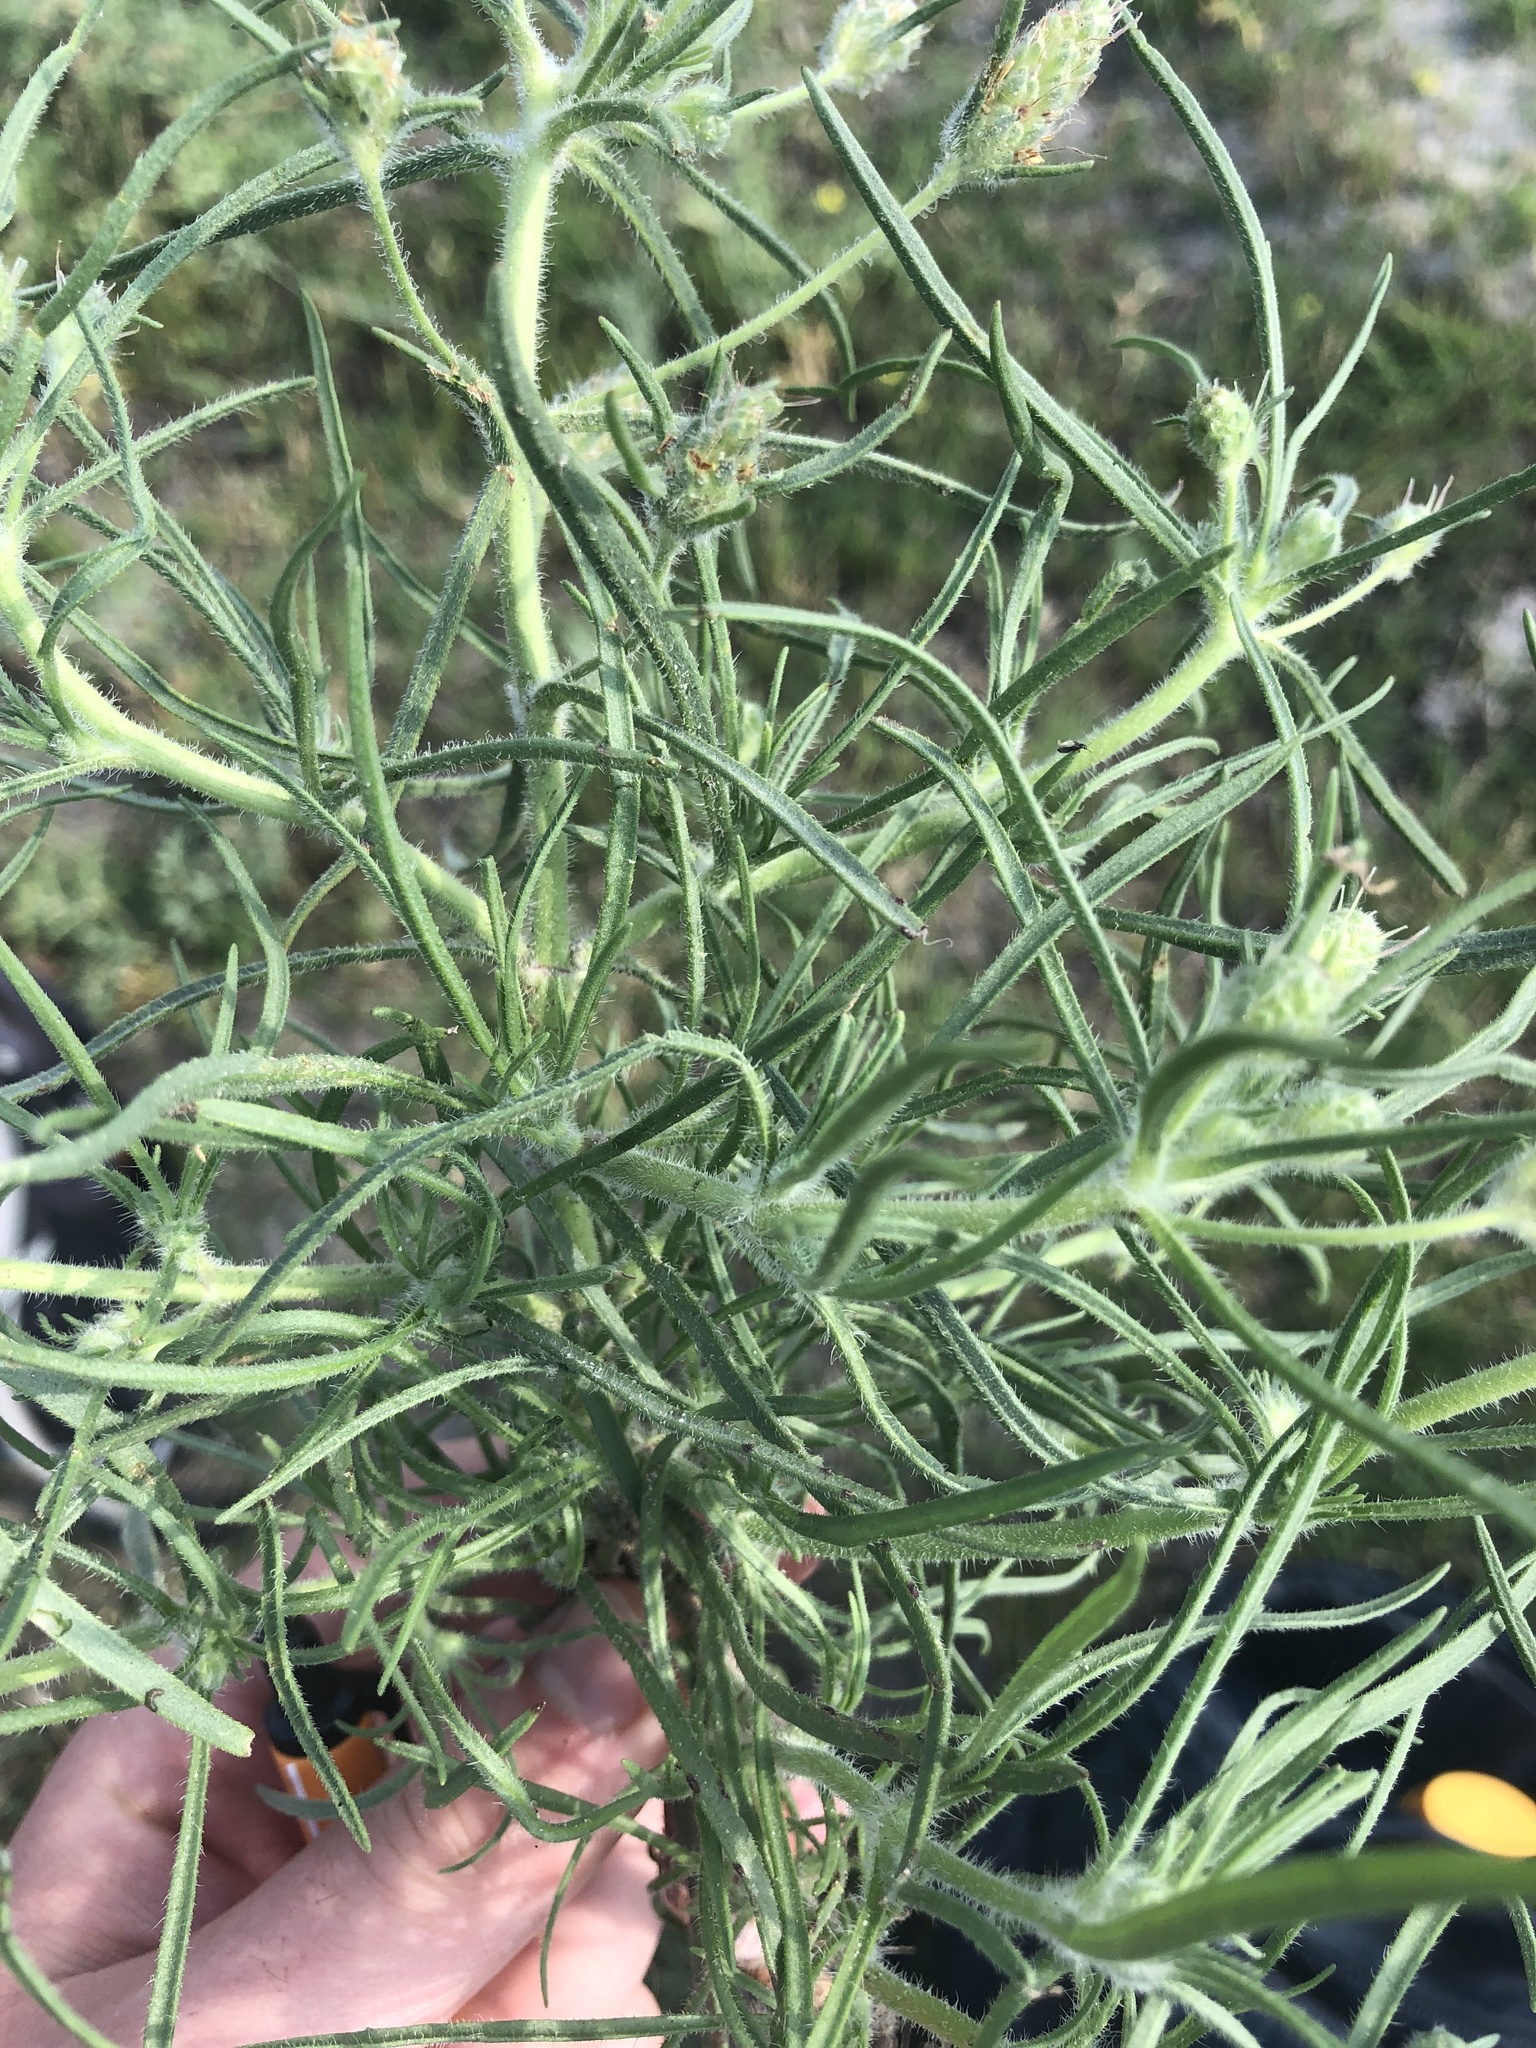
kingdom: Plantae
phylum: Tracheophyta
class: Magnoliopsida
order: Lamiales
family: Plantaginaceae
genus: Plantago
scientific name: Plantago arenaria
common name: Branched plantain
